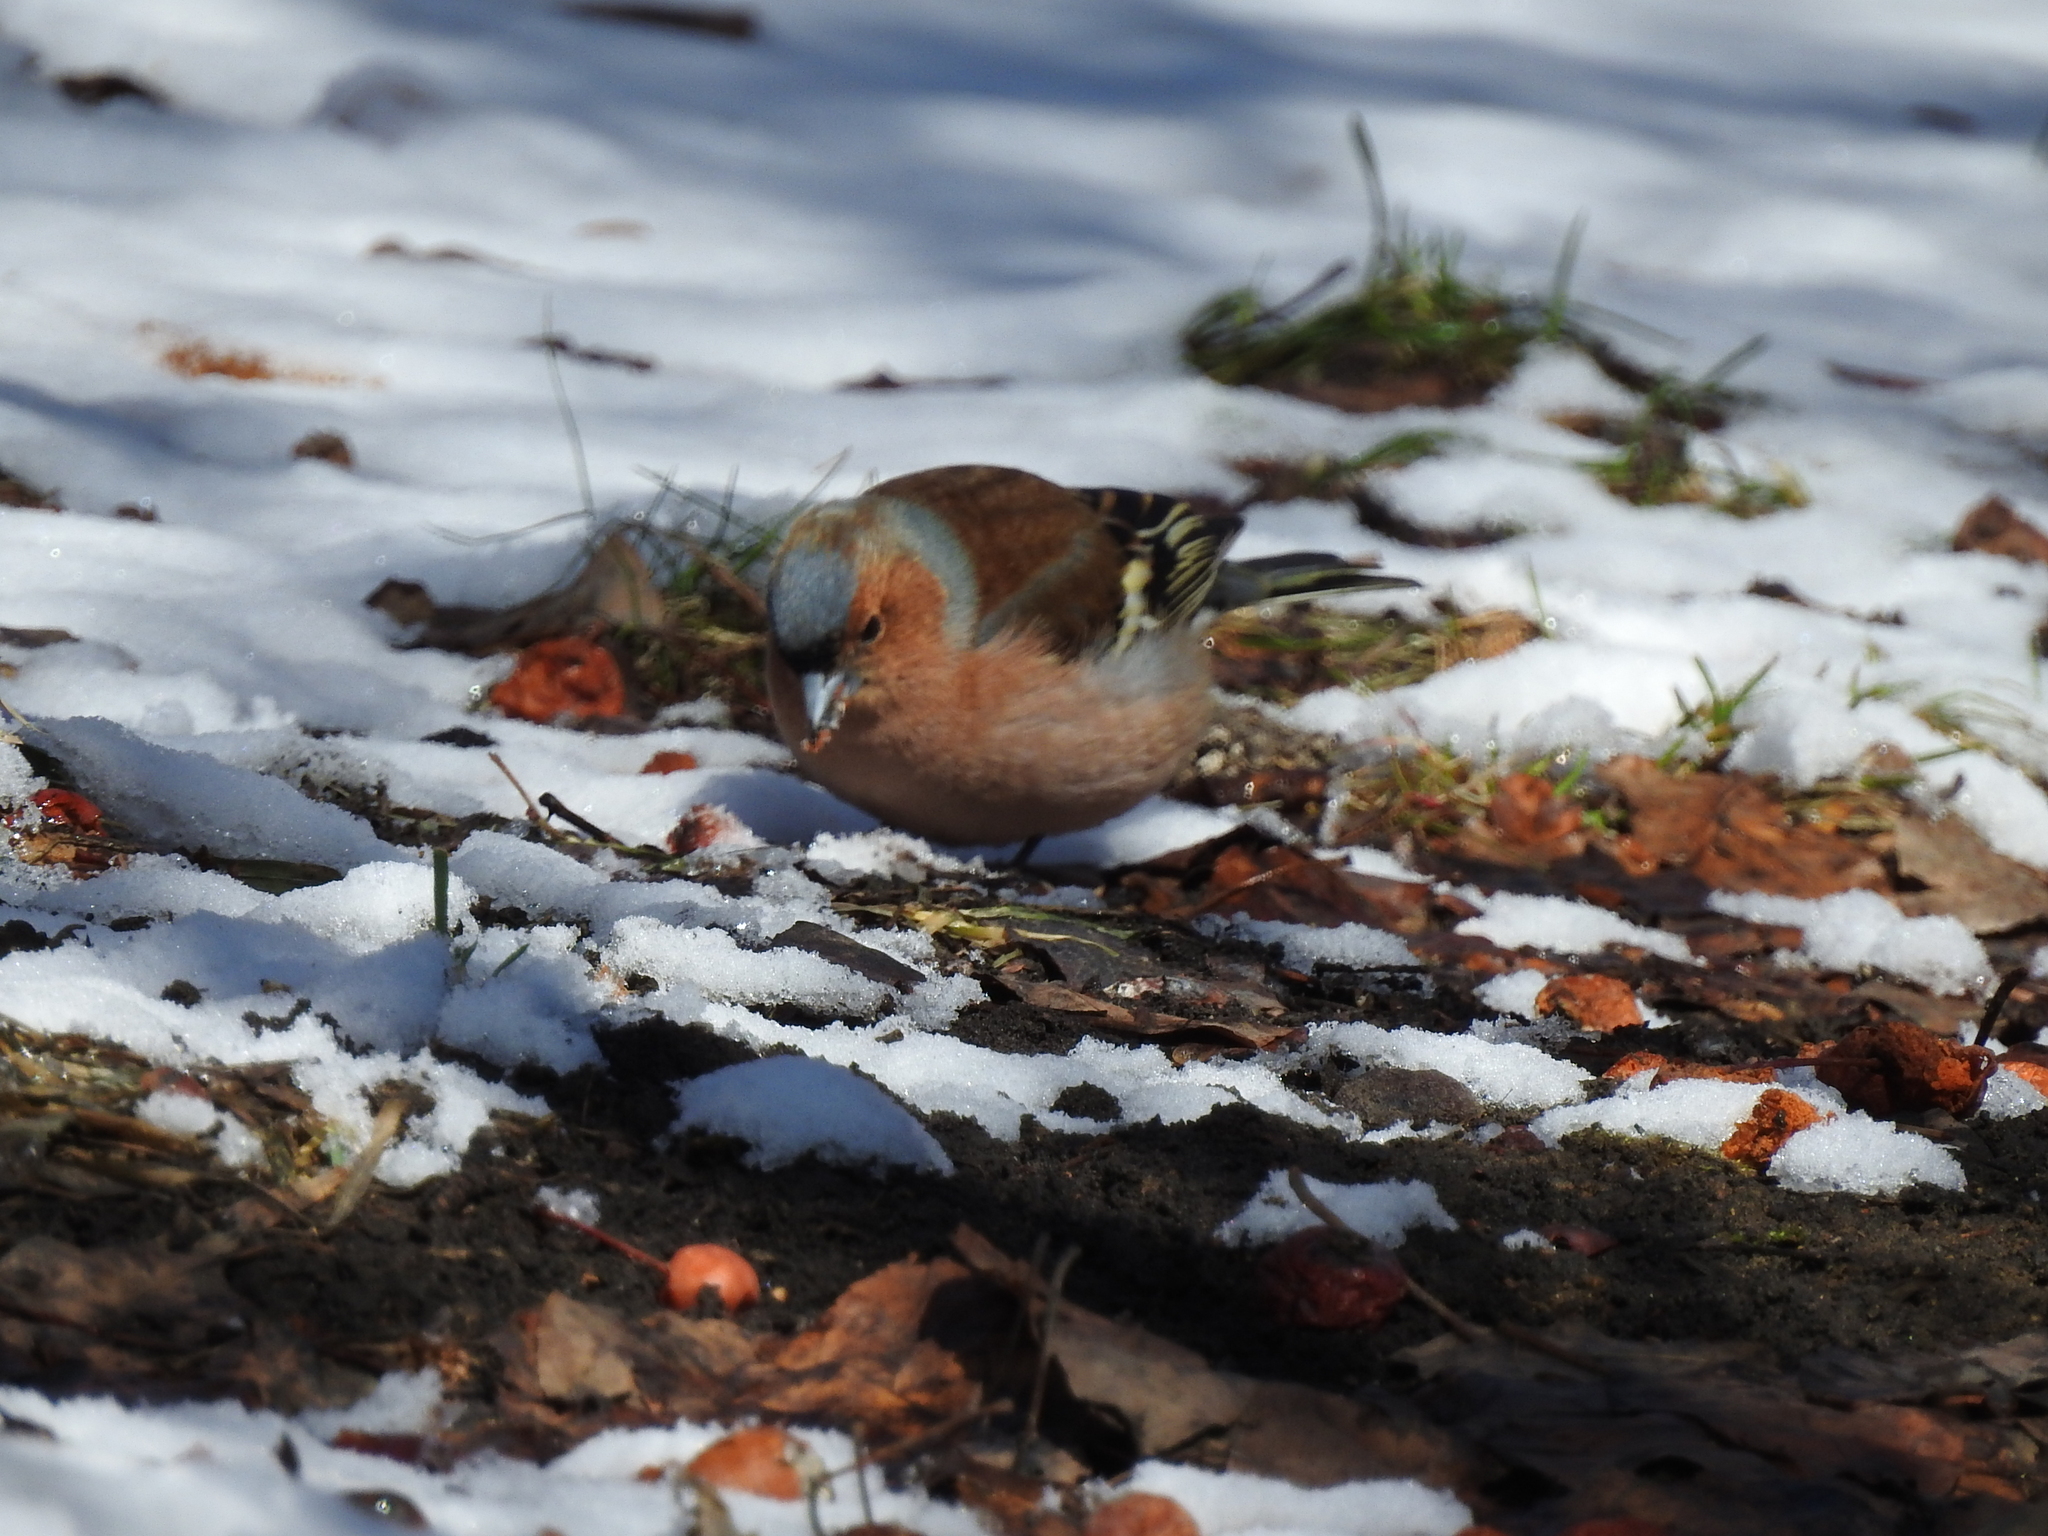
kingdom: Animalia
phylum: Chordata
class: Aves
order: Passeriformes
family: Fringillidae
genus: Fringilla
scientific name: Fringilla coelebs
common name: Common chaffinch
